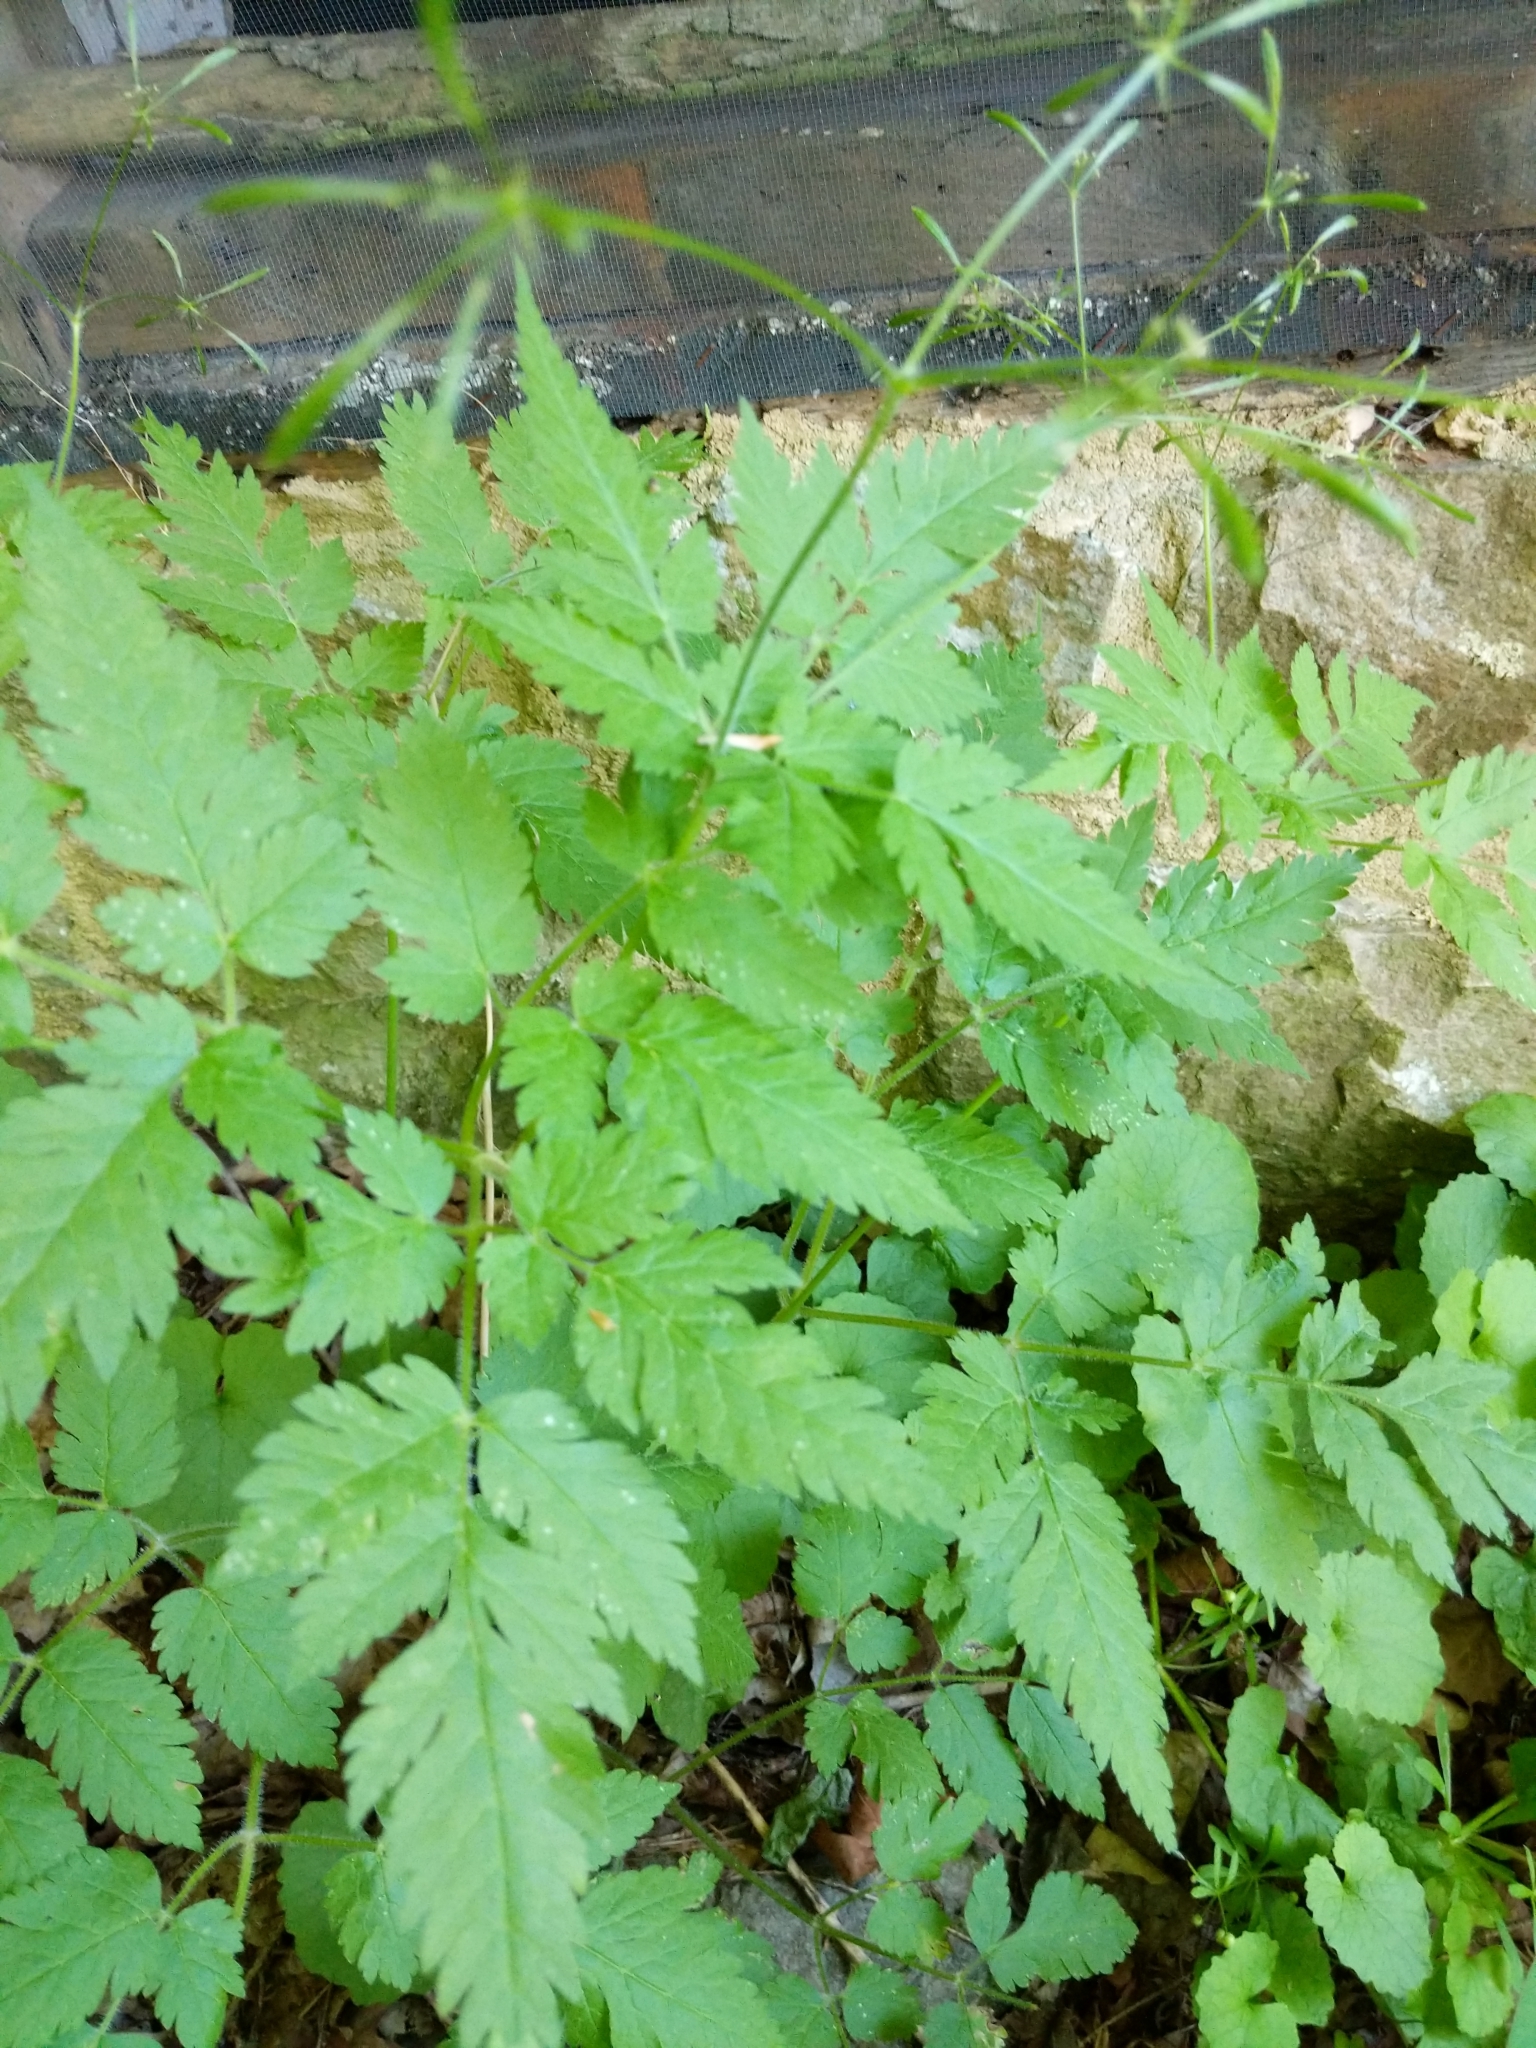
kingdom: Plantae
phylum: Tracheophyta
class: Magnoliopsida
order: Apiales
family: Apiaceae
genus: Osmorhiza
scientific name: Osmorhiza claytonii
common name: Hairy sweet cicely
